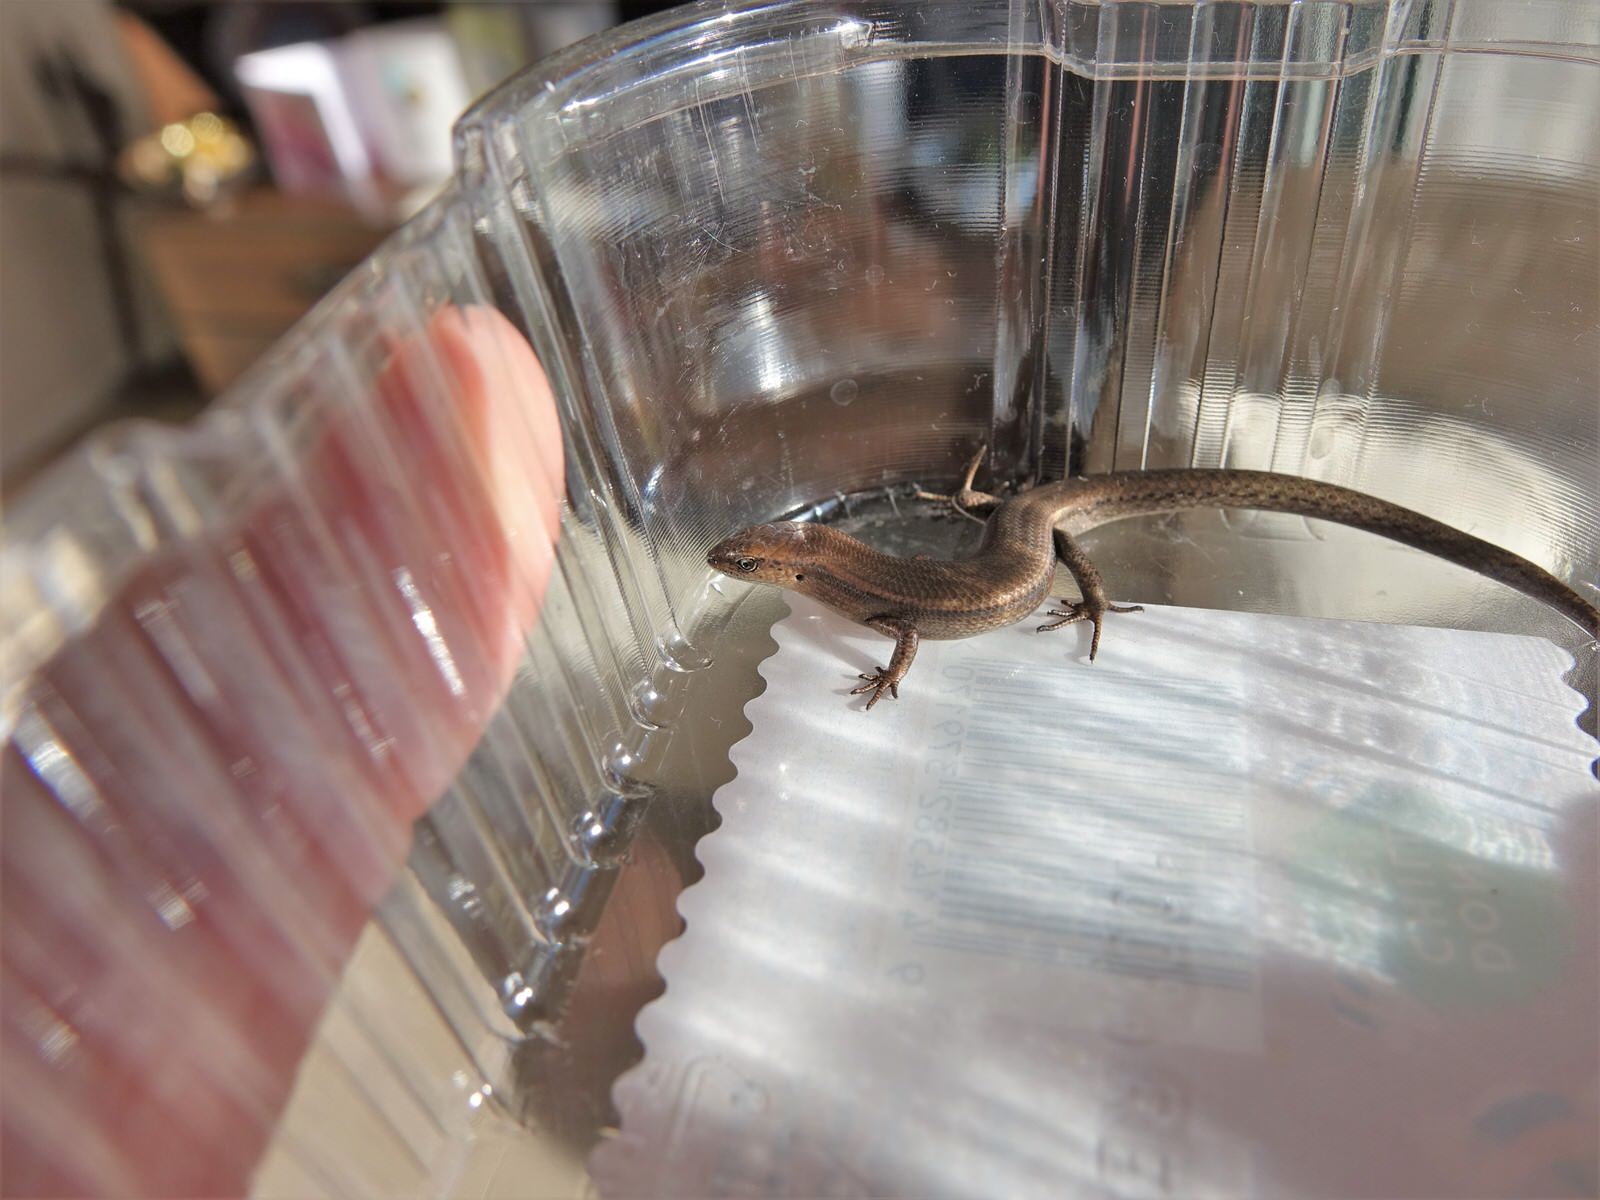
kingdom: Animalia
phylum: Chordata
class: Squamata
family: Scincidae
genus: Lampropholis
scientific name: Lampropholis delicata
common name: Plague skink
